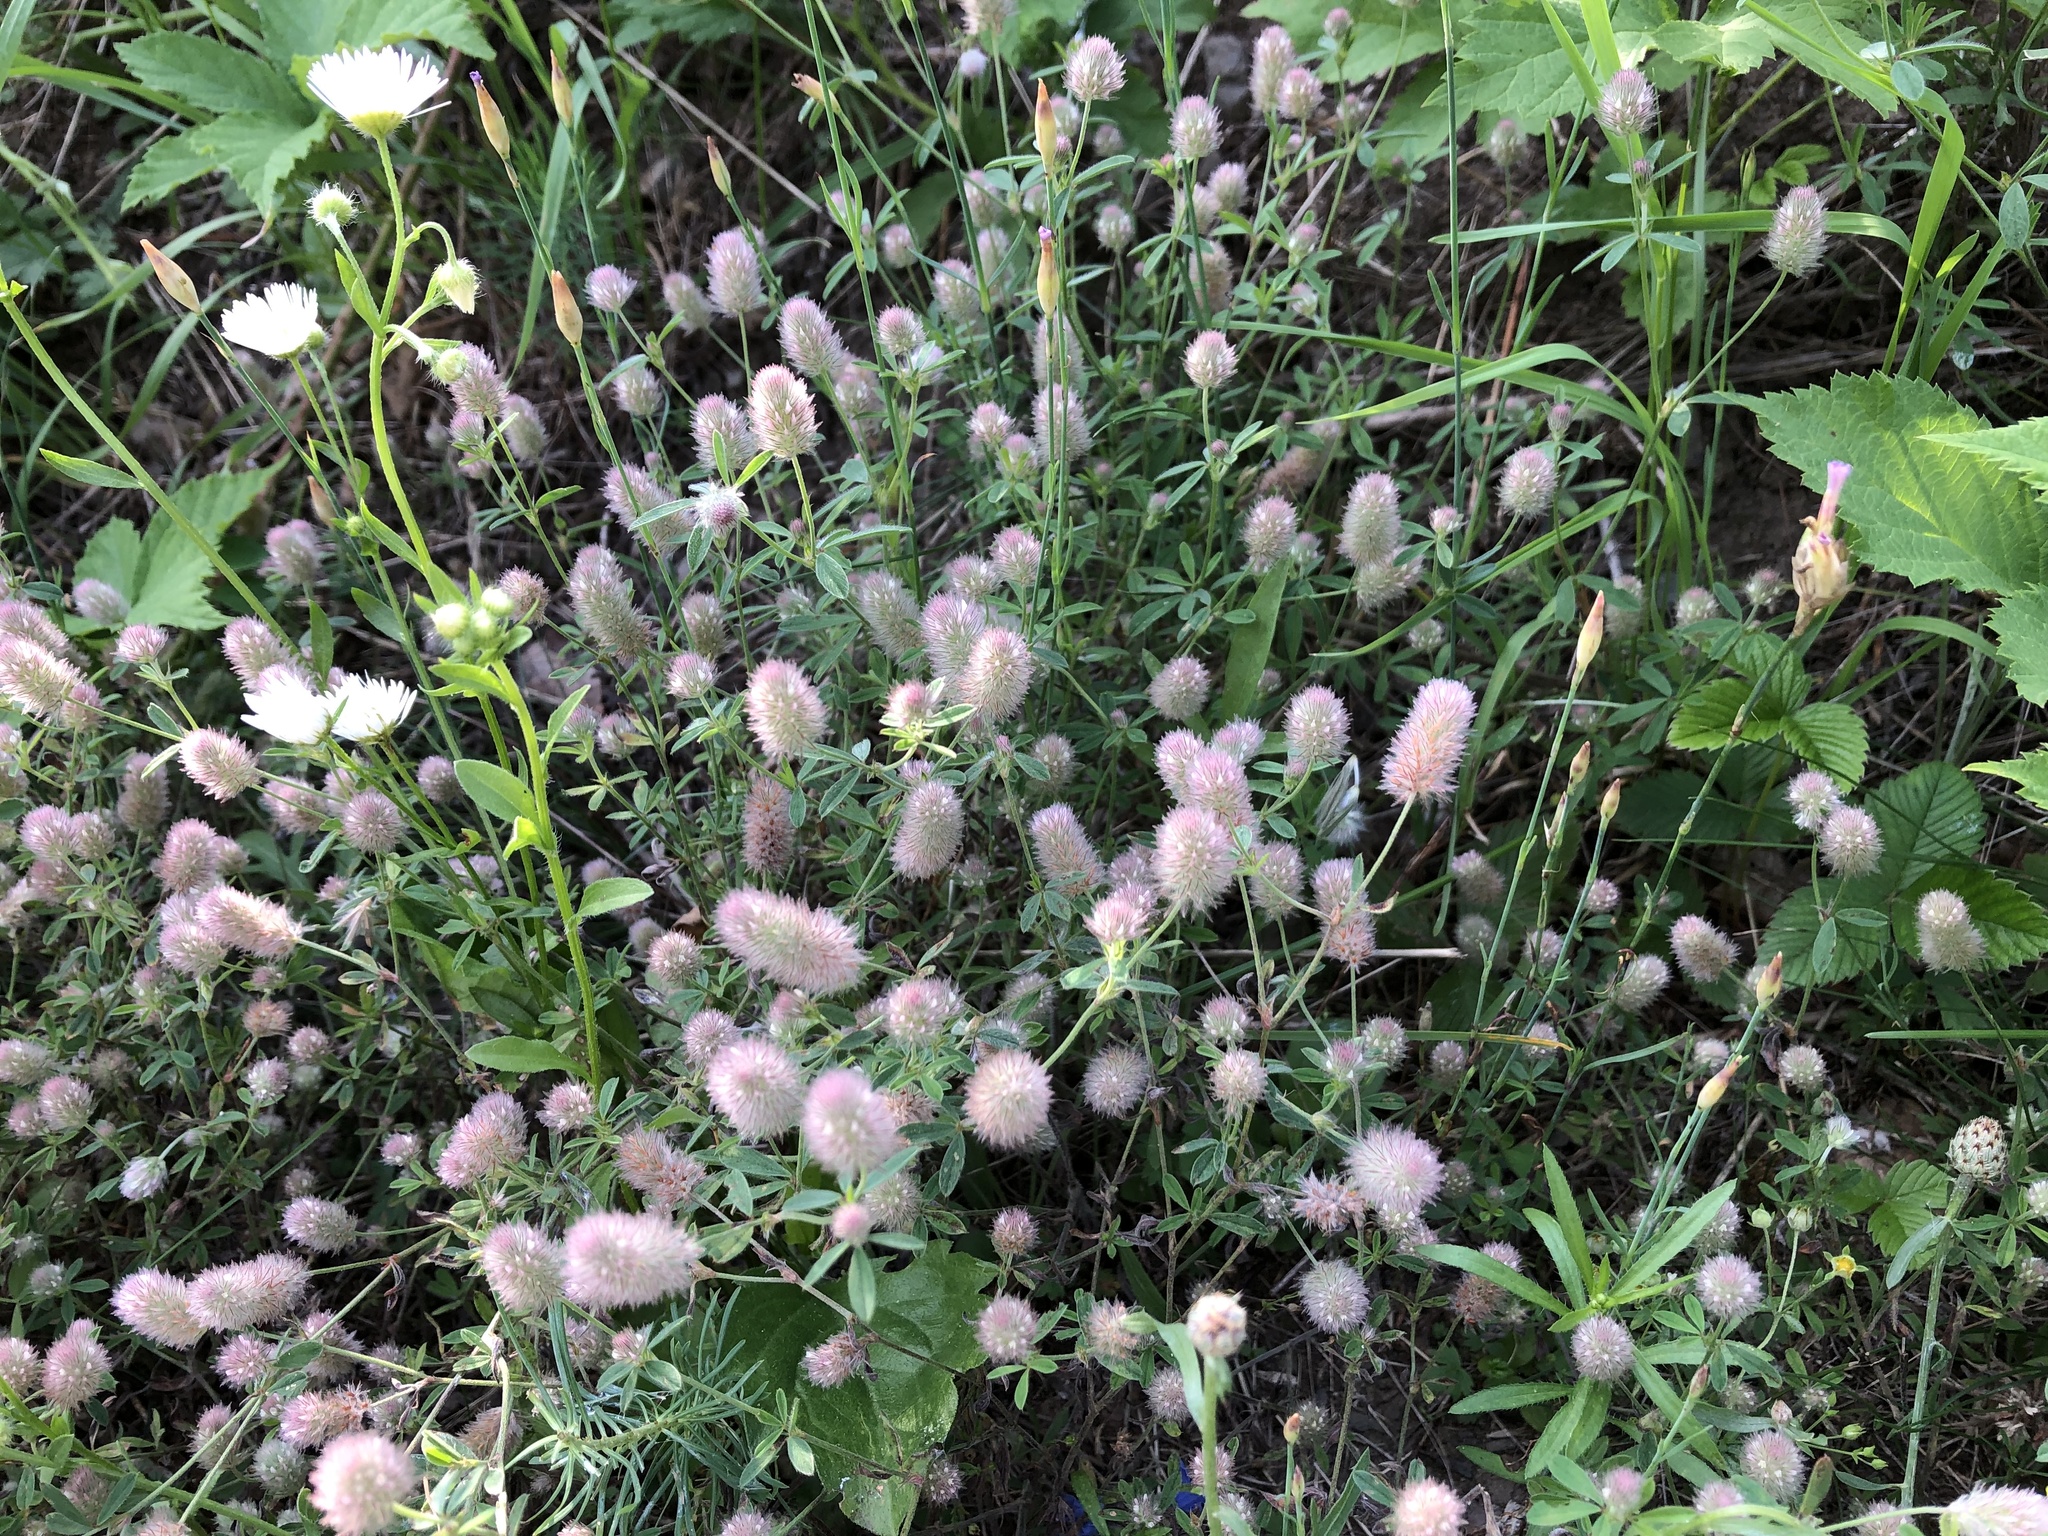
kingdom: Plantae
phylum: Tracheophyta
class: Magnoliopsida
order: Fabales
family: Fabaceae
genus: Trifolium
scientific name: Trifolium arvense
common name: Hare's-foot clover
